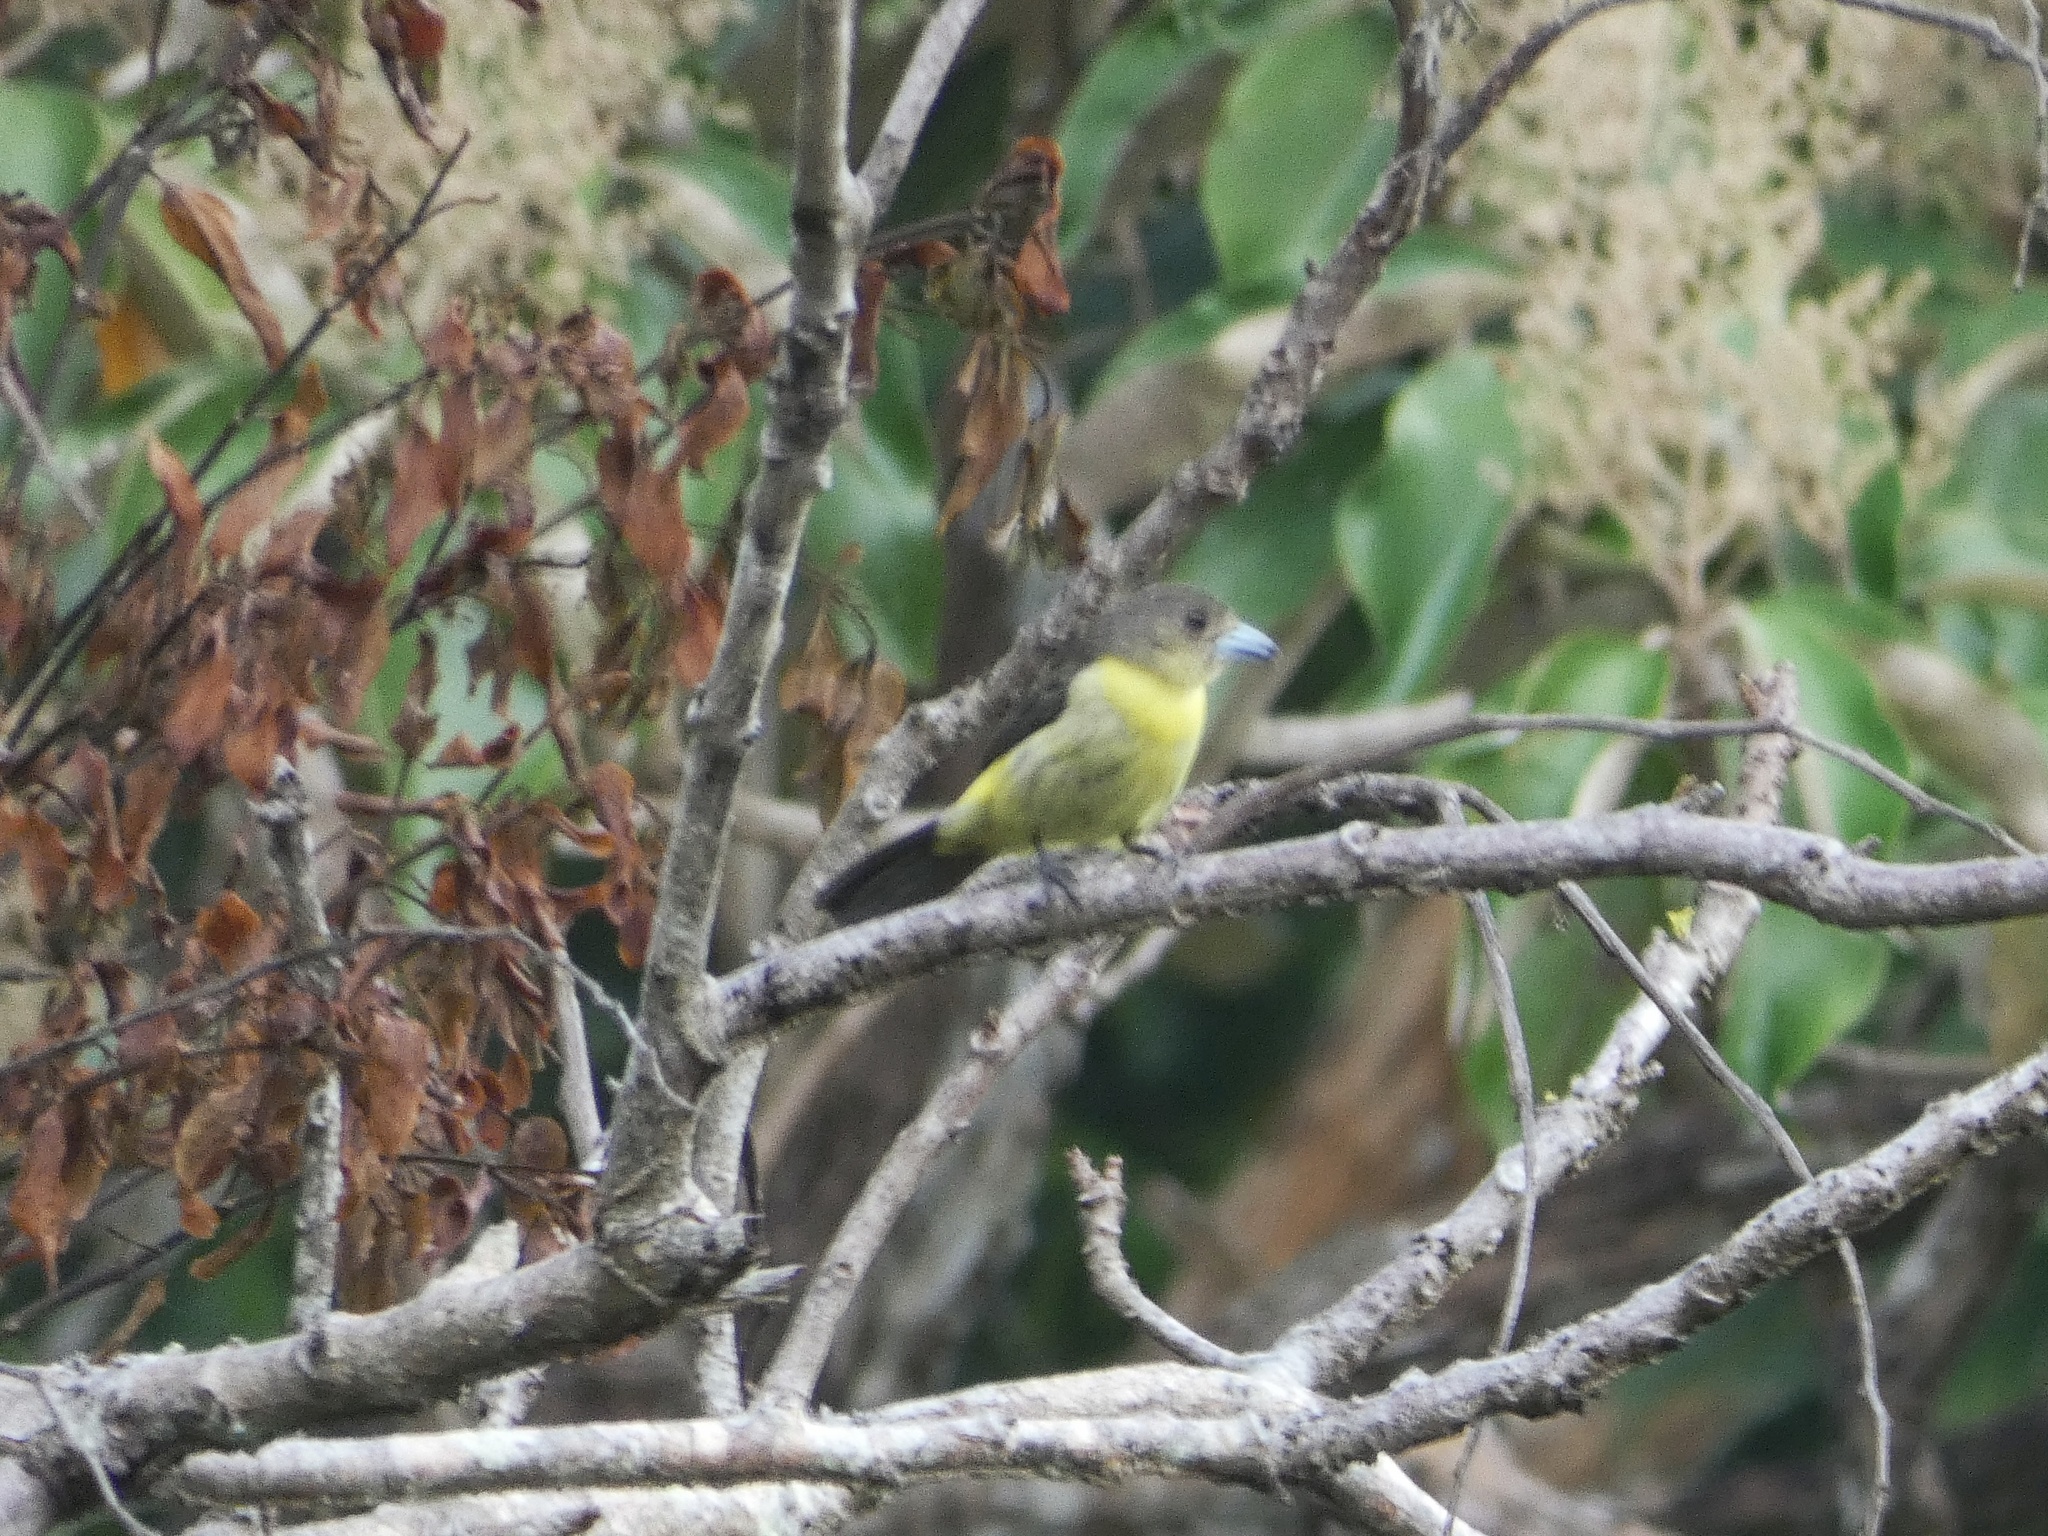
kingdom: Animalia
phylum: Chordata
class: Aves
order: Passeriformes
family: Thraupidae
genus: Ramphocelus
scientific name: Ramphocelus icteronotus
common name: Lemon-rumped tanager
